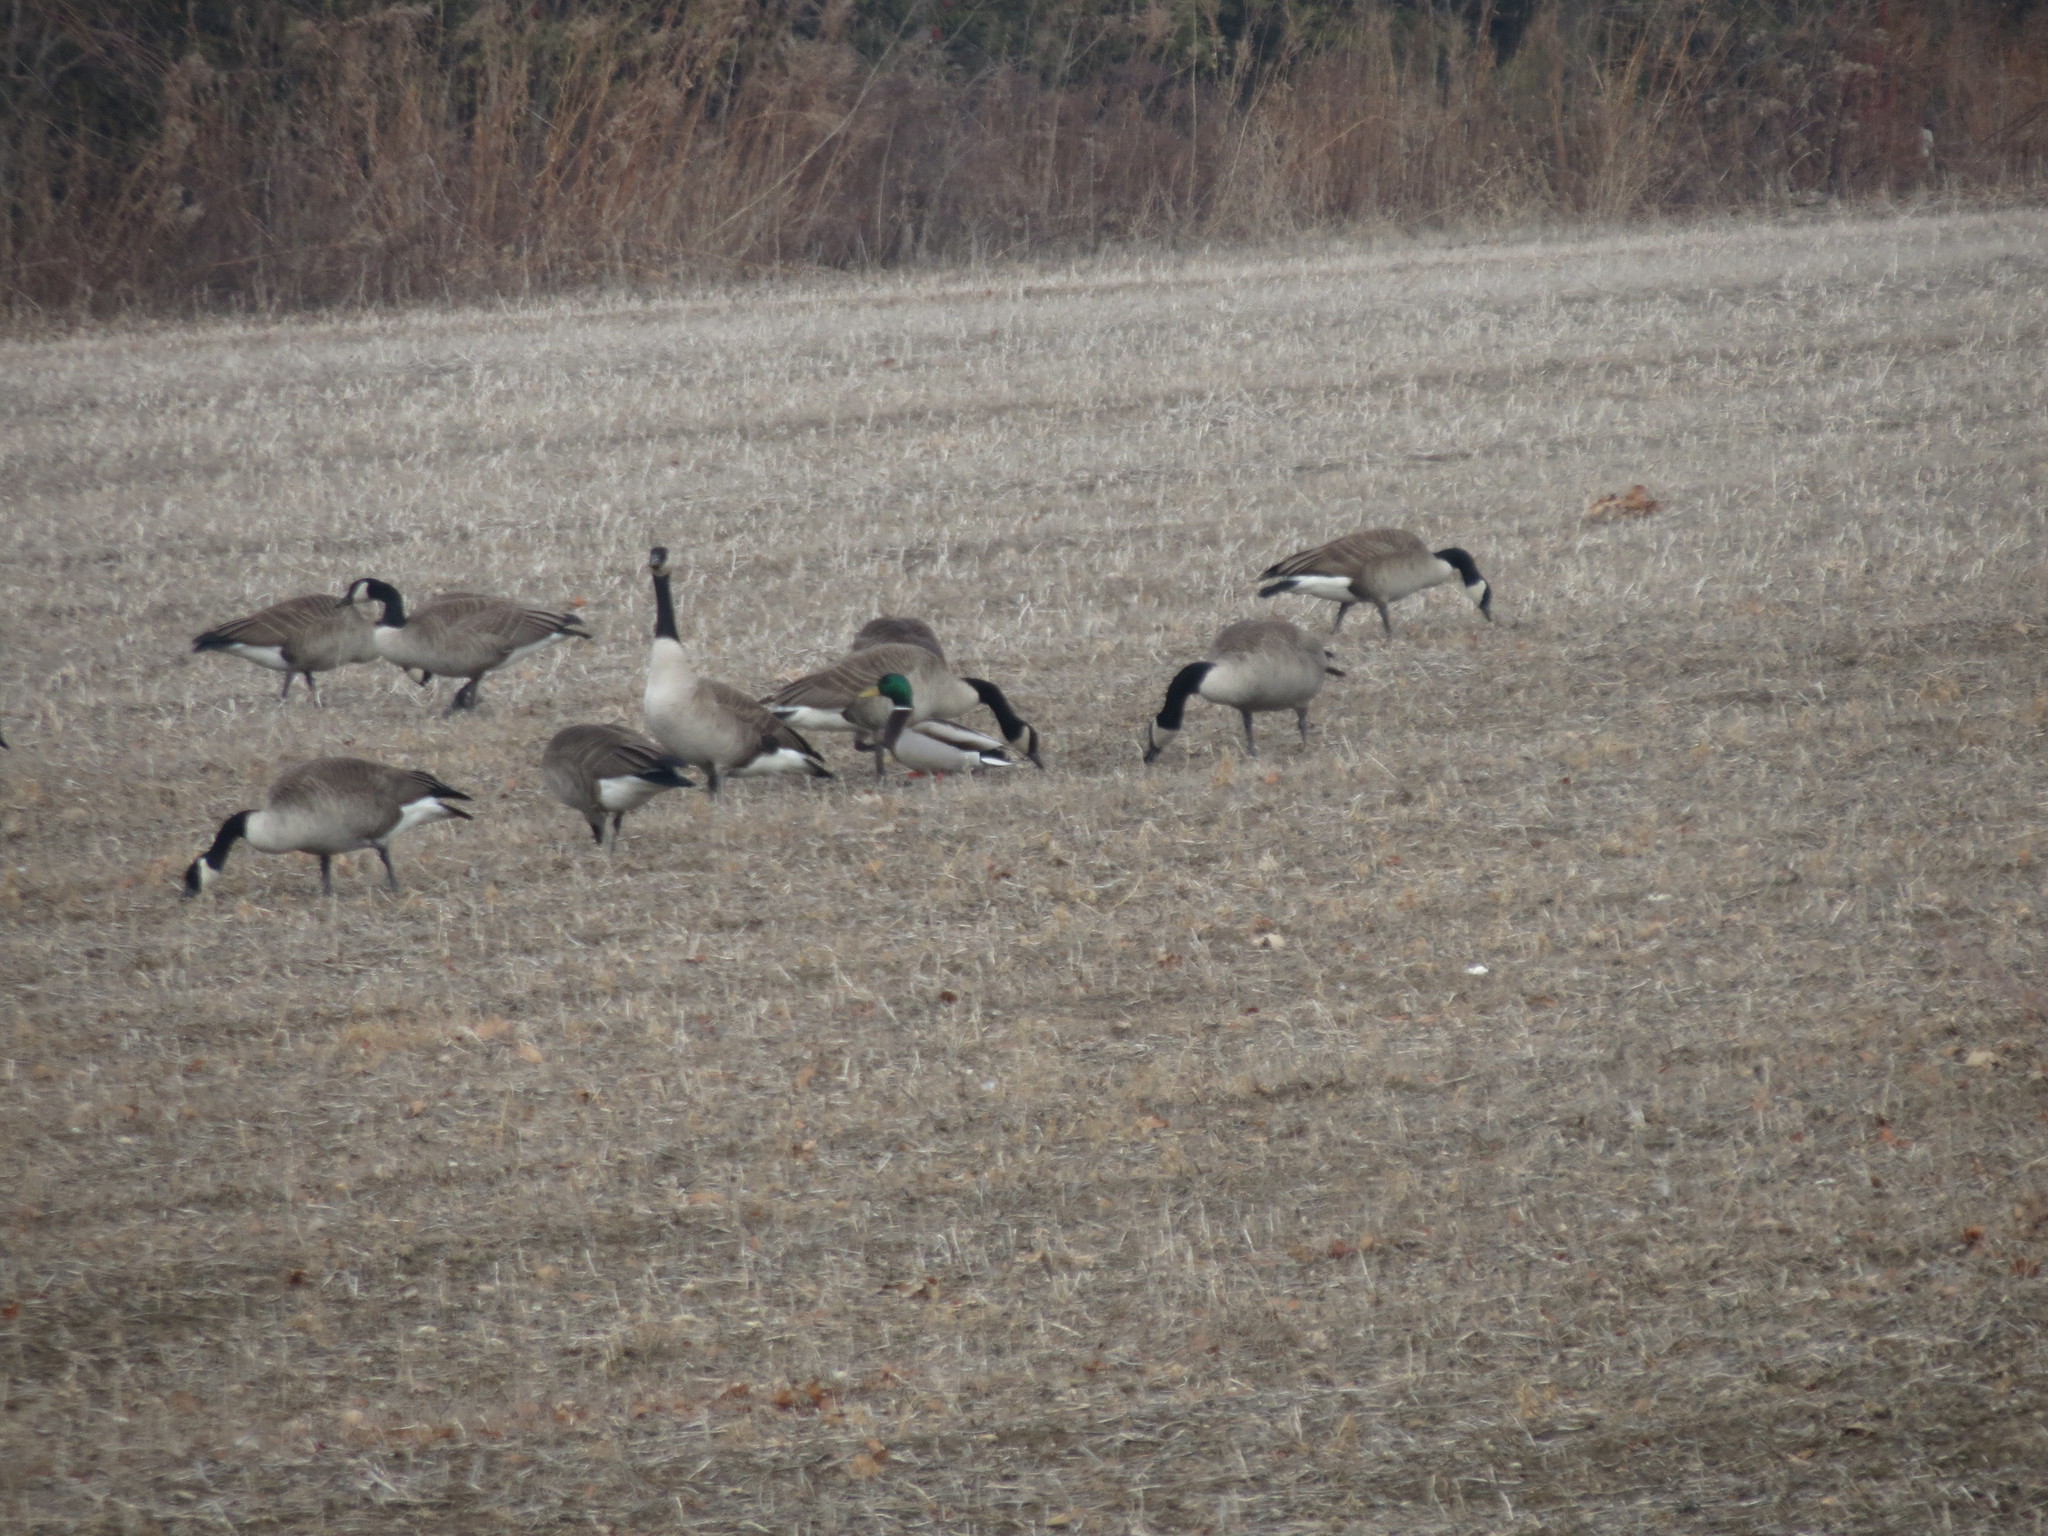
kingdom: Animalia
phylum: Chordata
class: Aves
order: Anseriformes
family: Anatidae
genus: Anas
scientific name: Anas platyrhynchos
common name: Mallard
